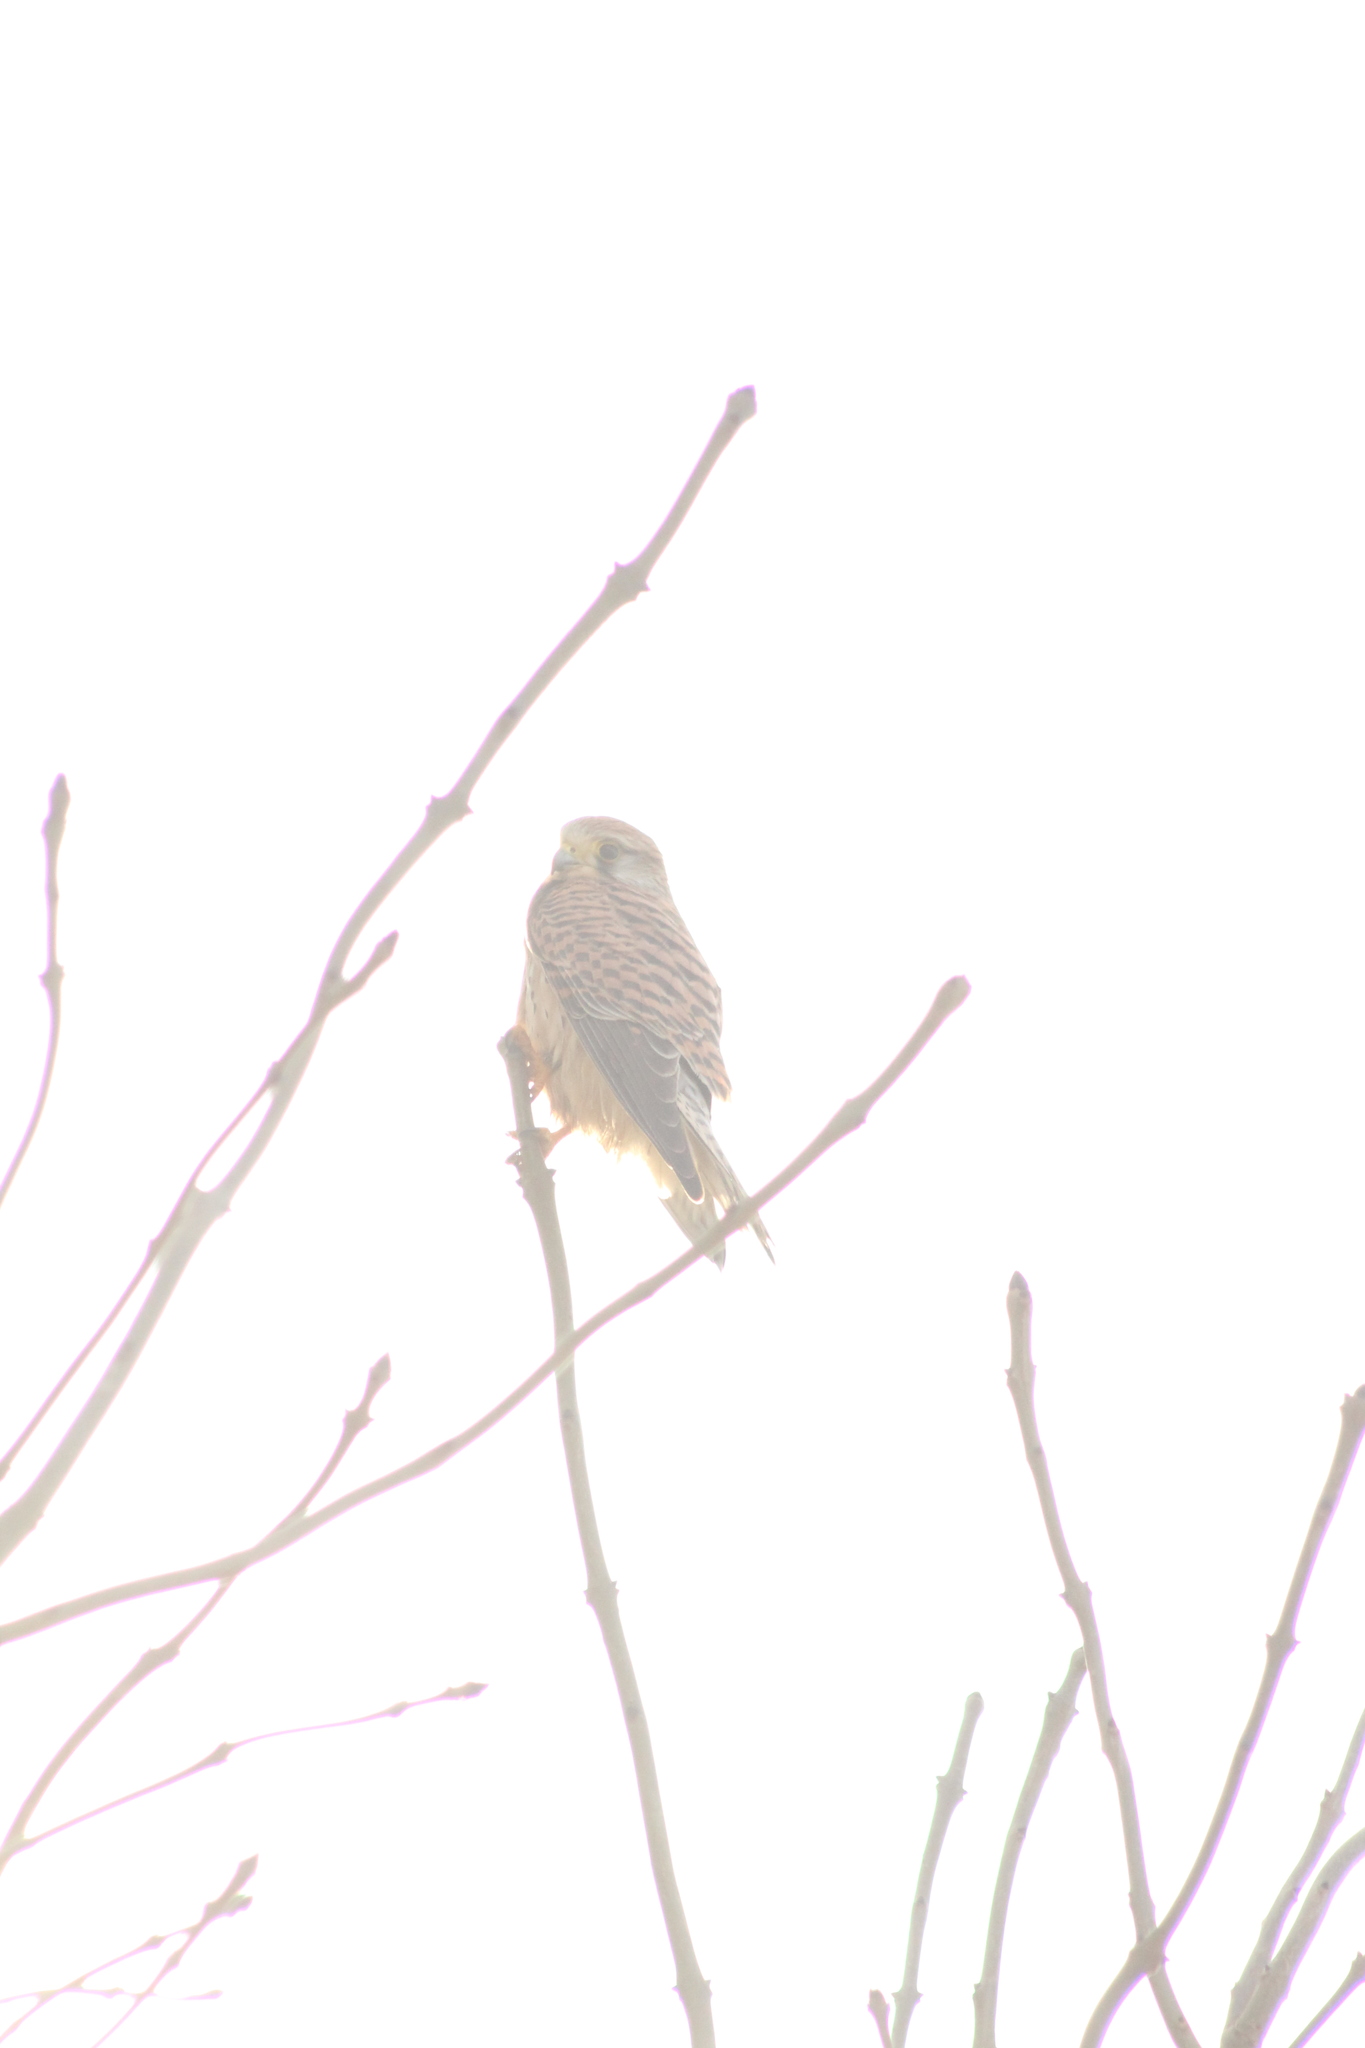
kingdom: Animalia
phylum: Chordata
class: Aves
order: Falconiformes
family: Falconidae
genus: Falco
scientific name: Falco tinnunculus
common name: Common kestrel
